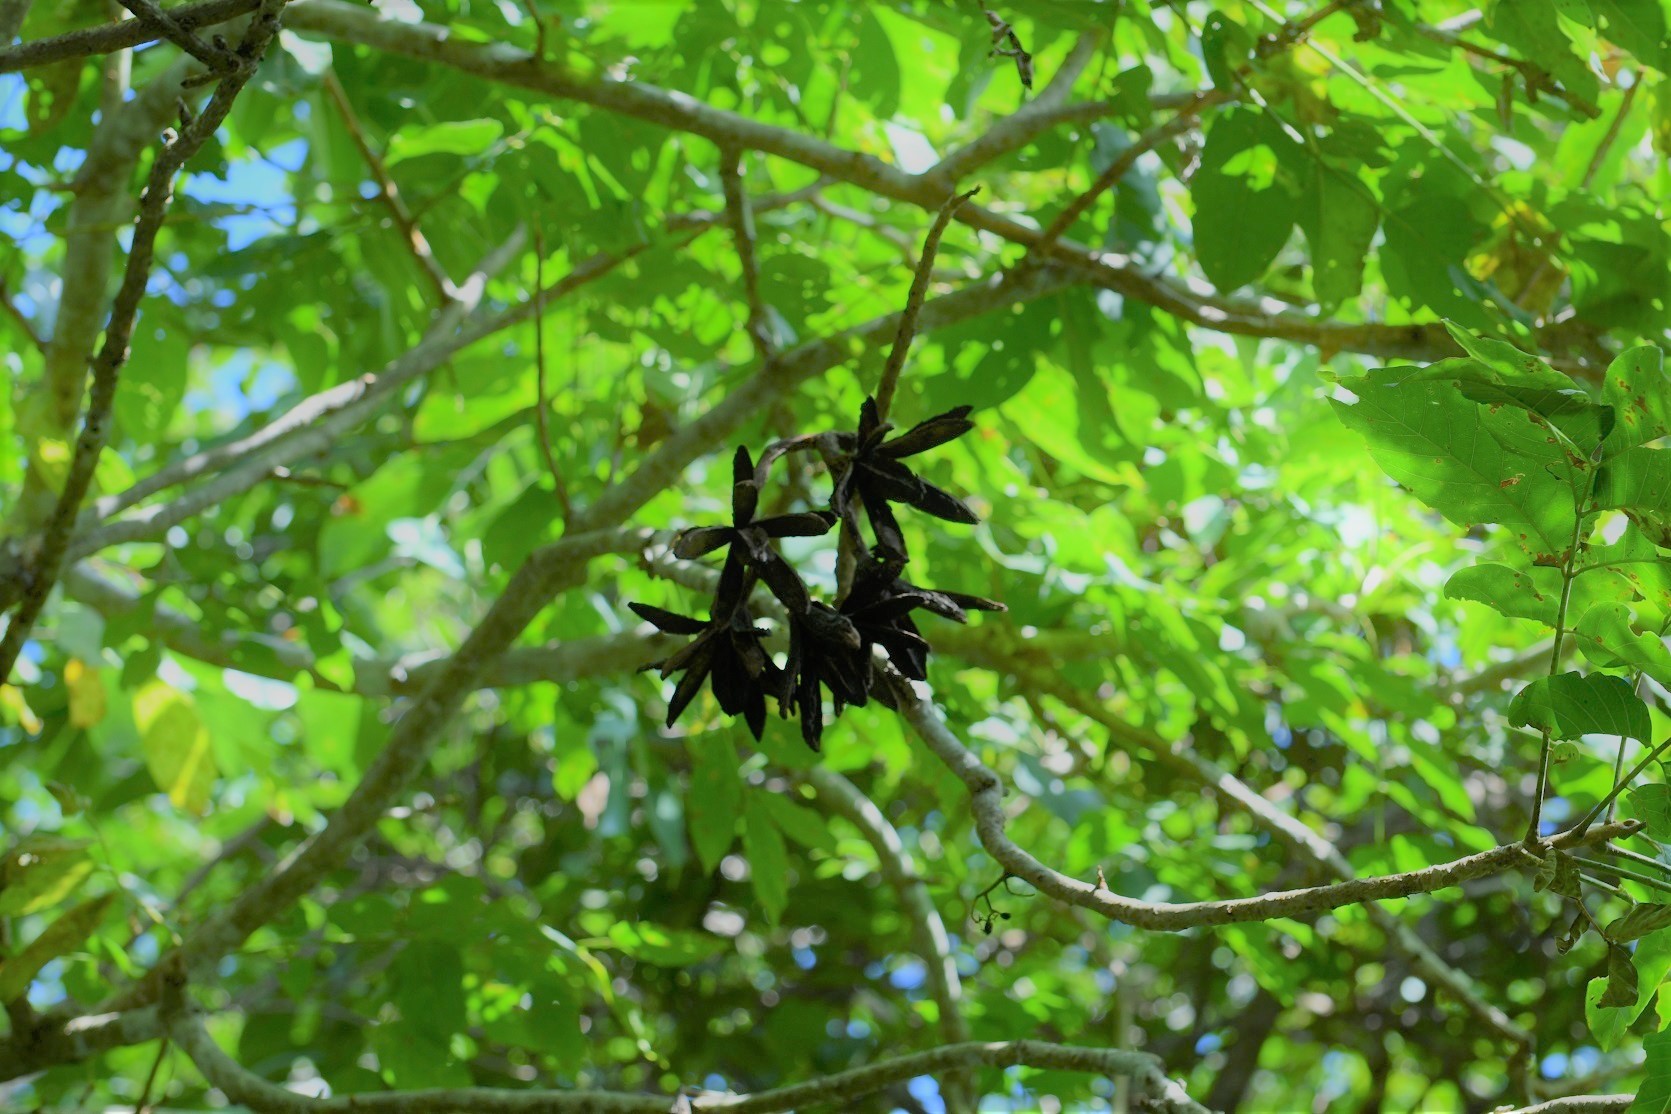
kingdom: Plantae
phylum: Tracheophyta
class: Magnoliopsida
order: Sapindales
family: Meliaceae
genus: Cedrela
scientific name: Cedrela salvadorensis
